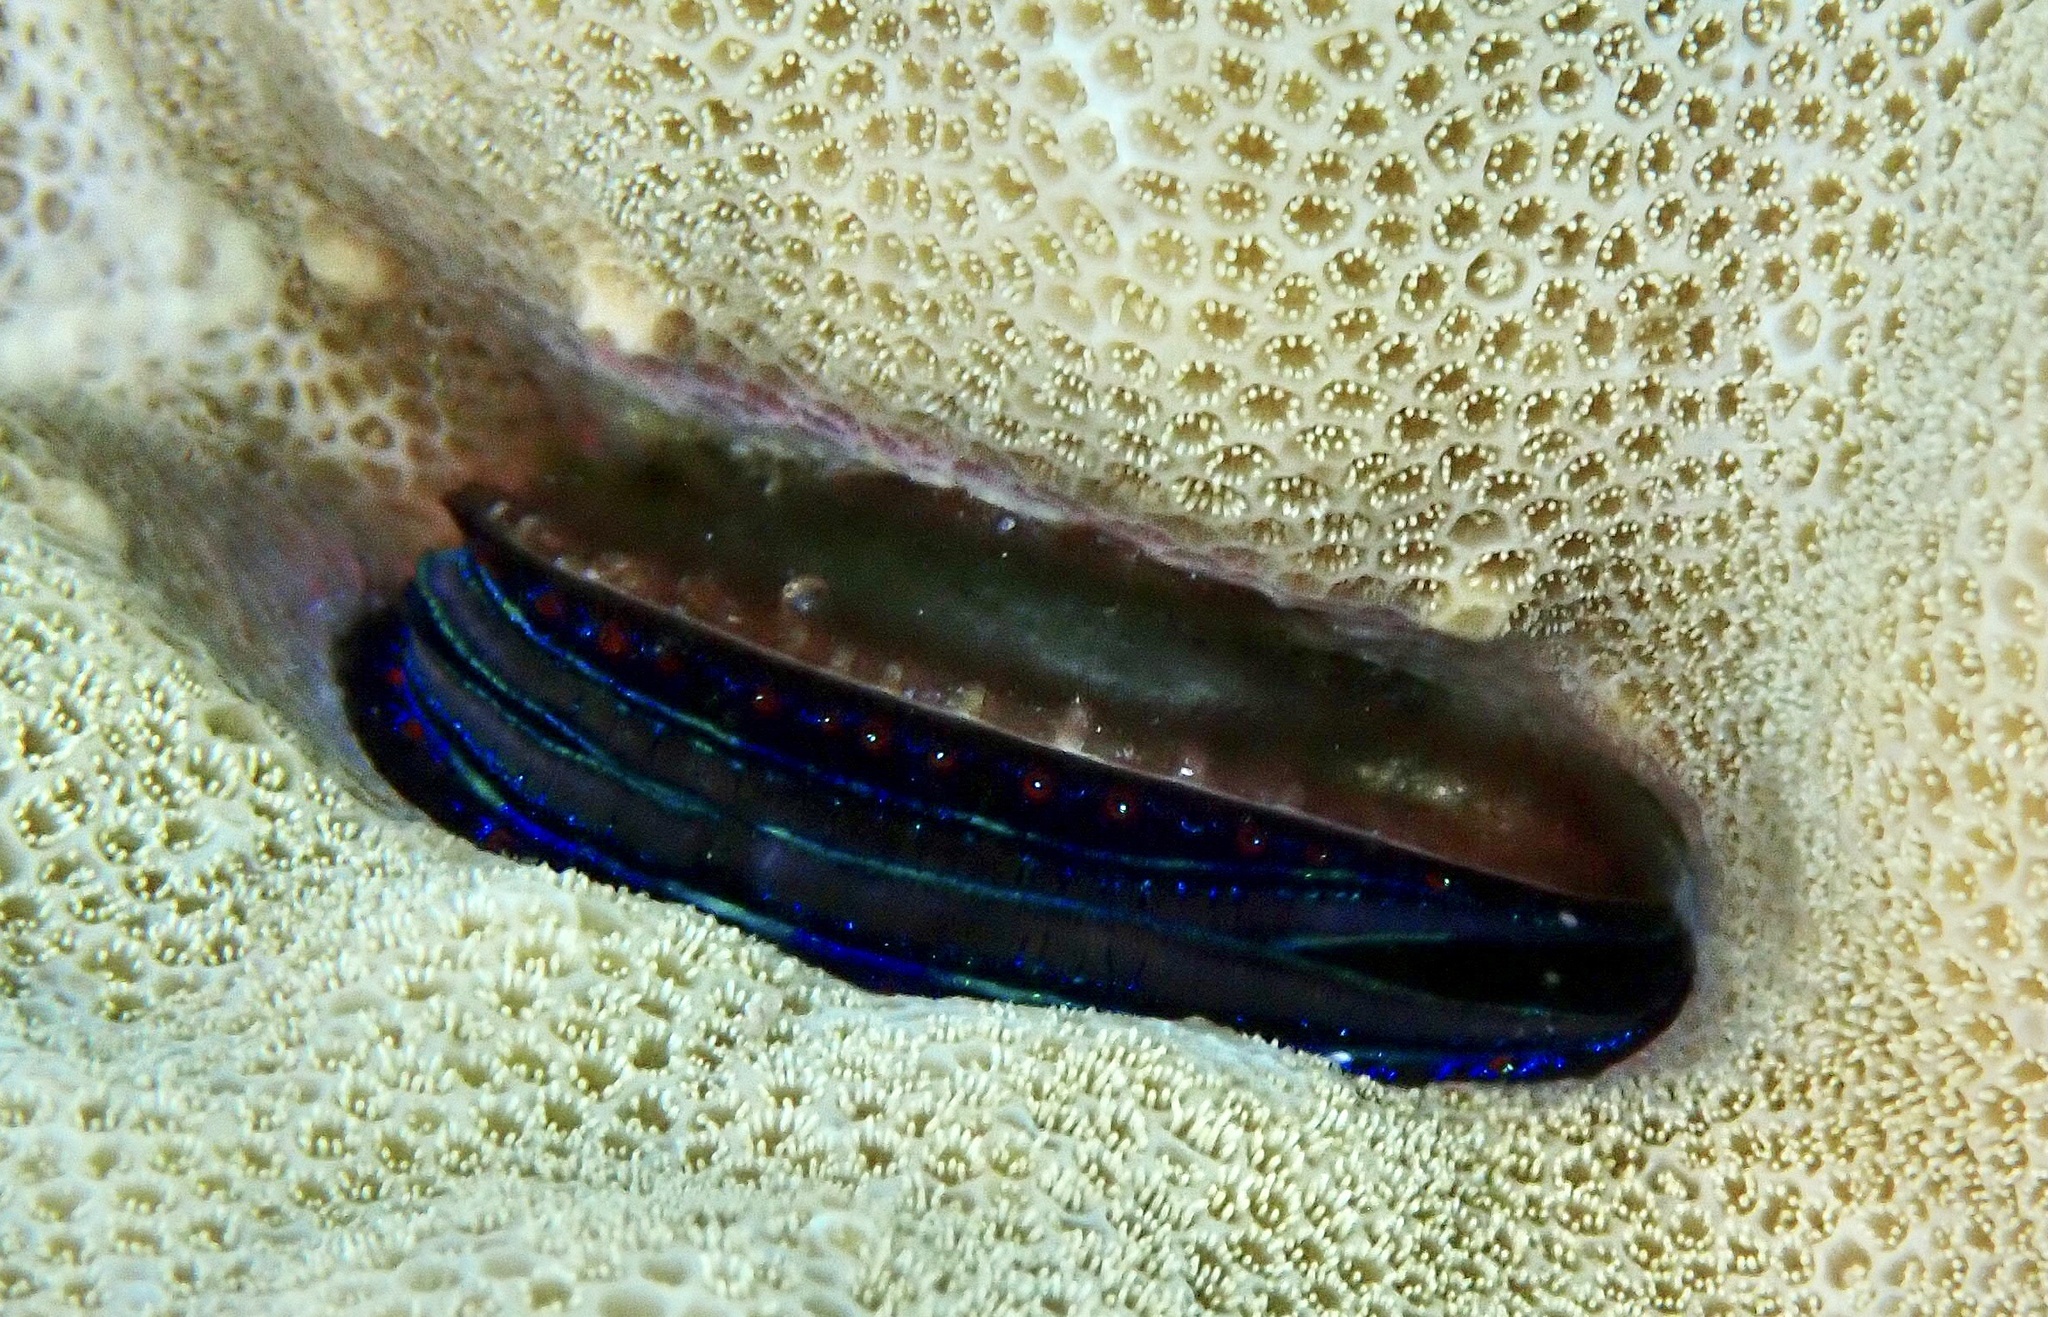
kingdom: Animalia
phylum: Mollusca
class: Bivalvia
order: Pectinida
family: Pectinidae
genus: Pedum
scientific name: Pedum spondyloideum
